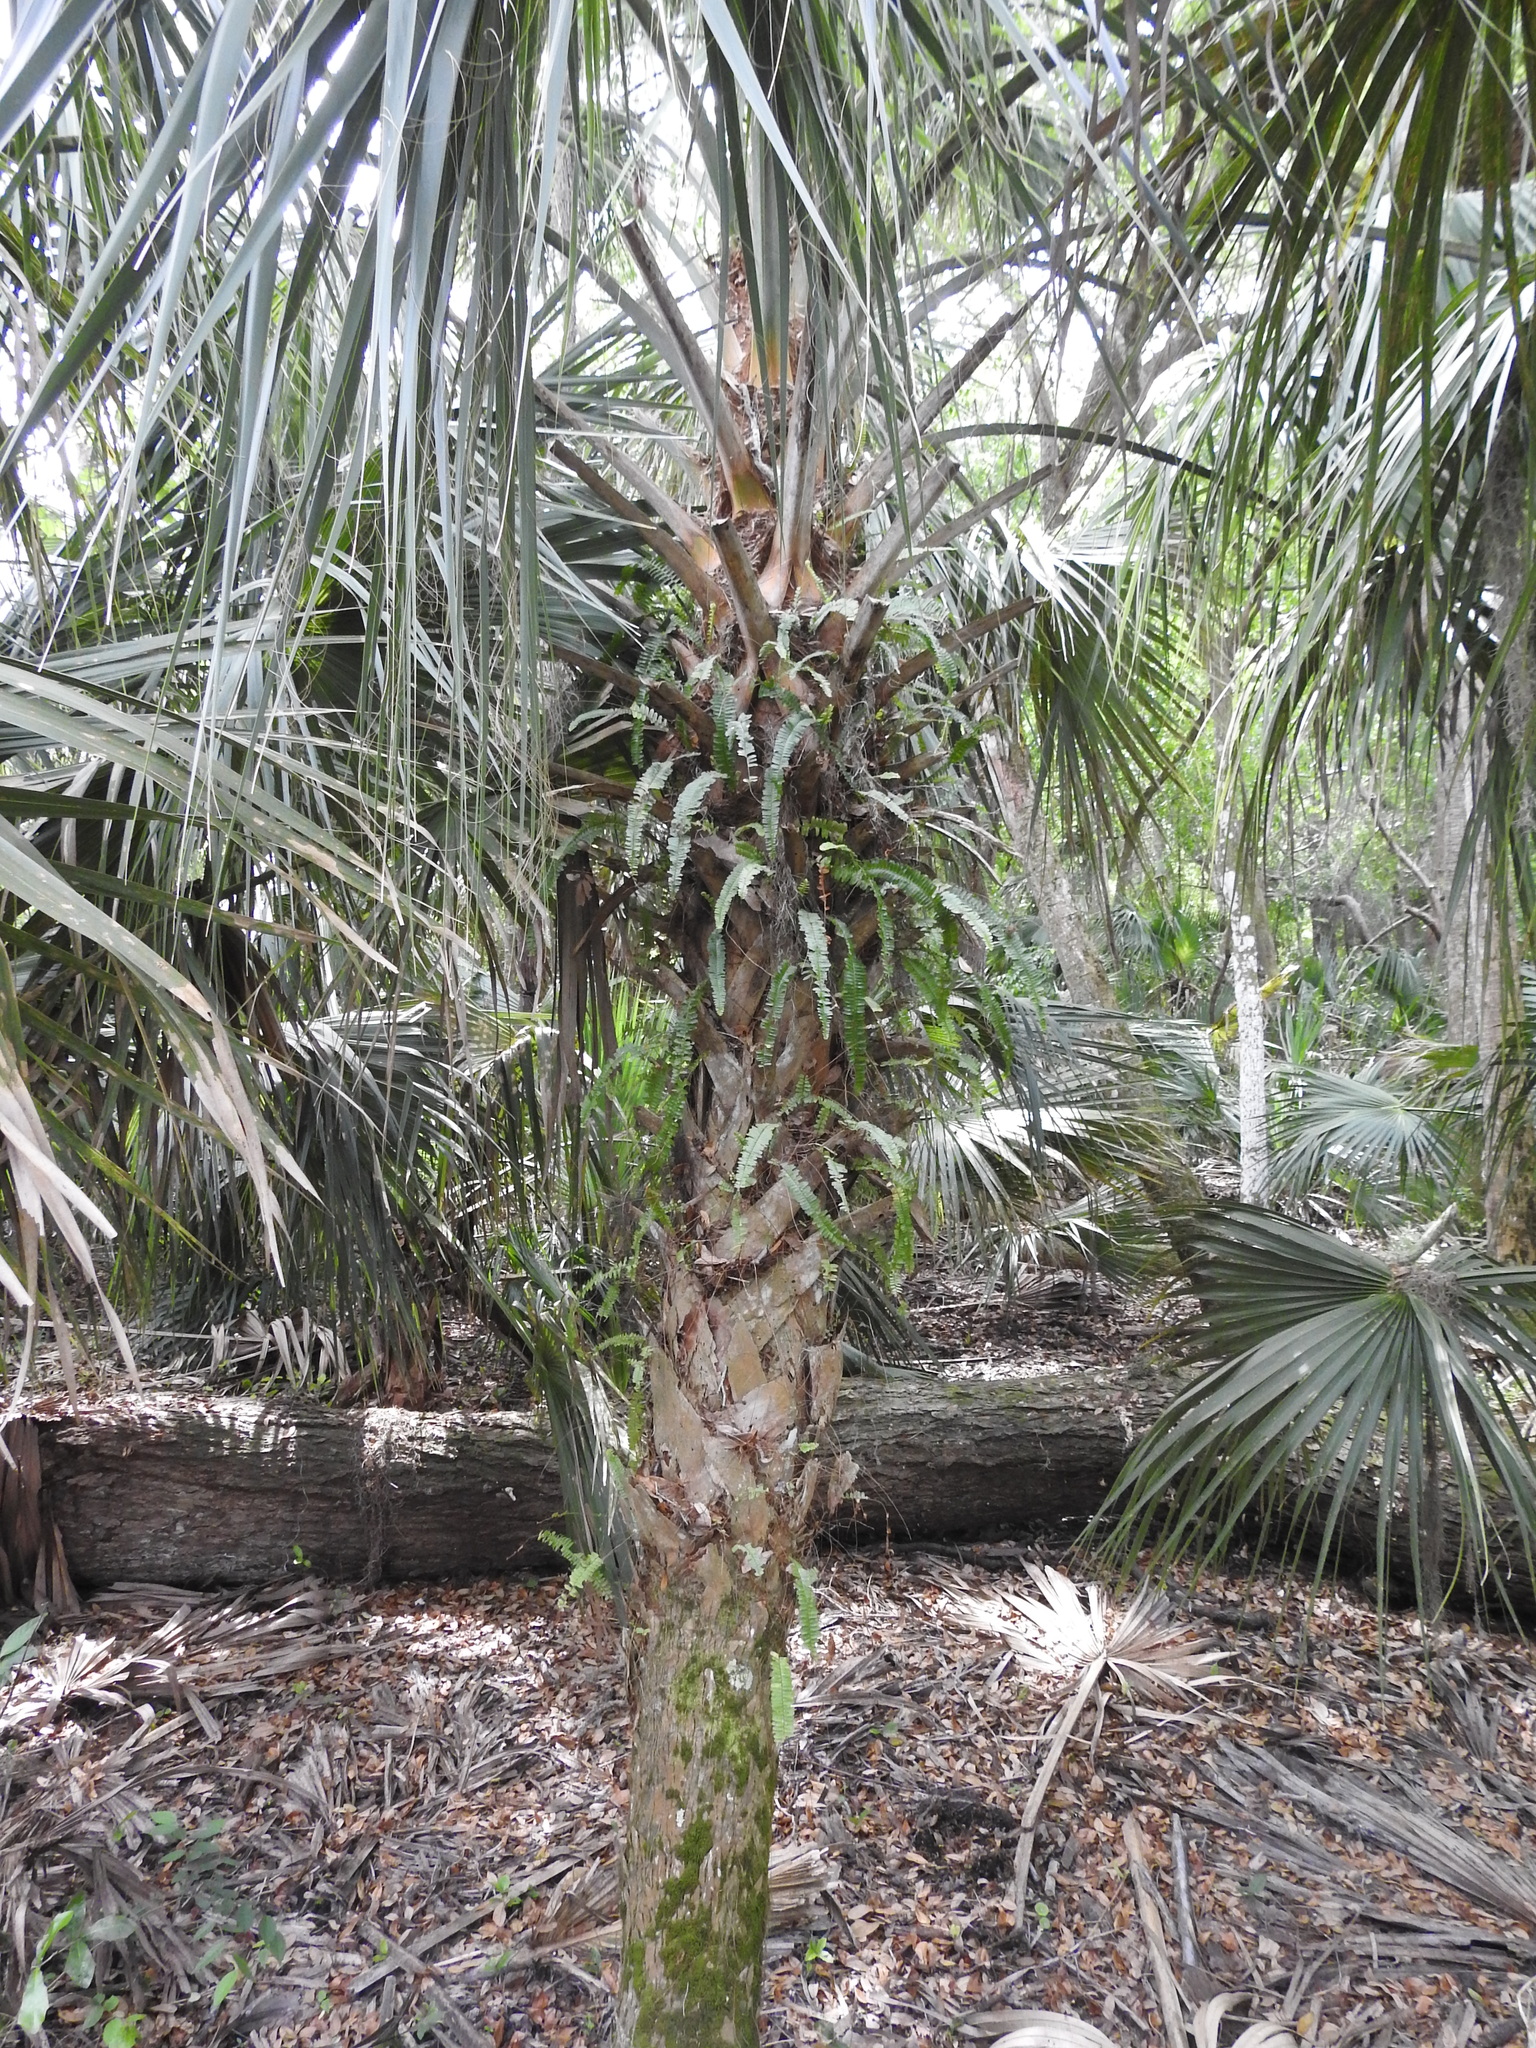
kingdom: Plantae
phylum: Tracheophyta
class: Liliopsida
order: Arecales
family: Arecaceae
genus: Sabal
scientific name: Sabal palmetto
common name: Blue palmetto
